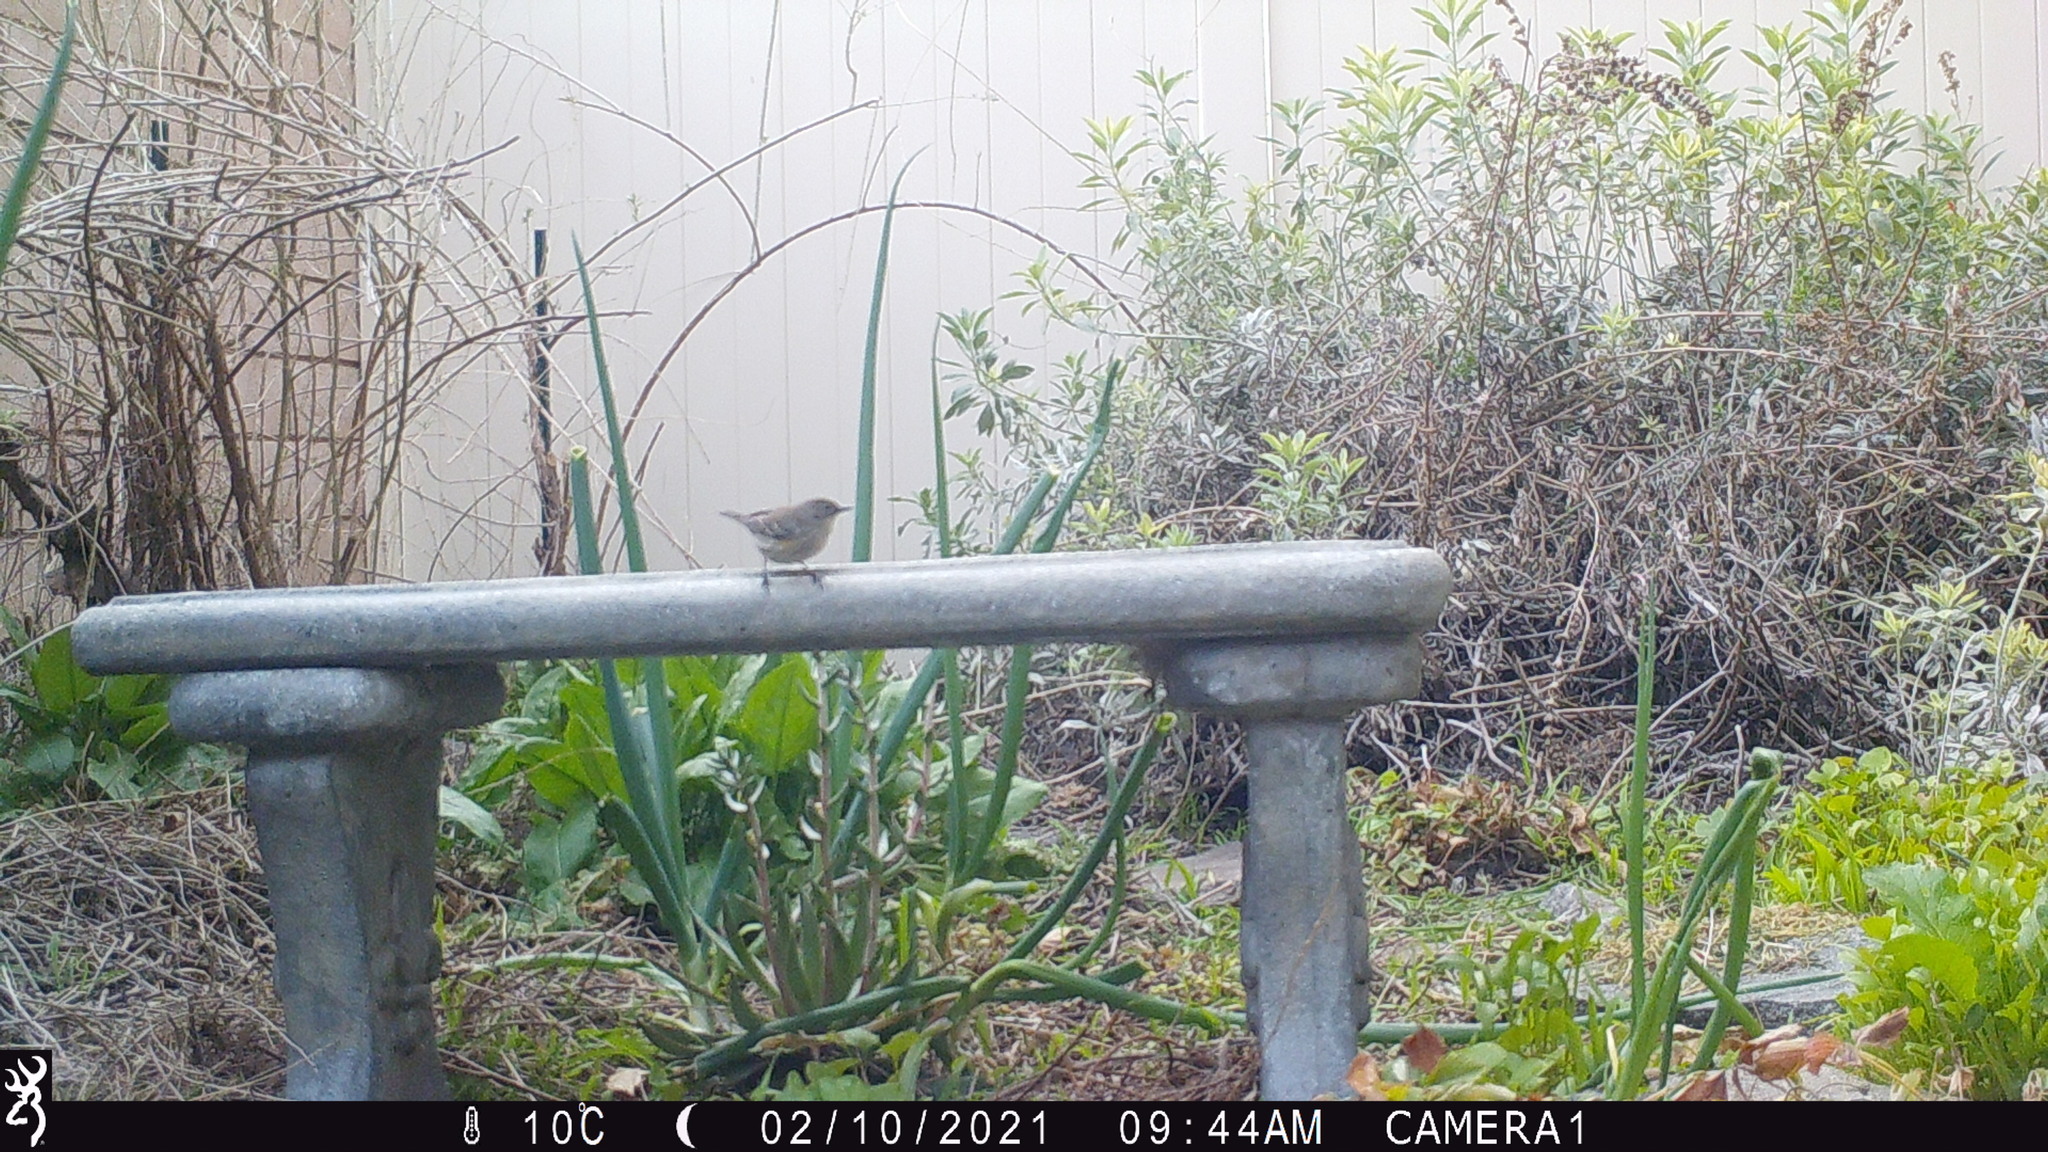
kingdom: Animalia
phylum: Chordata
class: Aves
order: Passeriformes
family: Parulidae
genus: Setophaga
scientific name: Setophaga coronata
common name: Myrtle warbler
